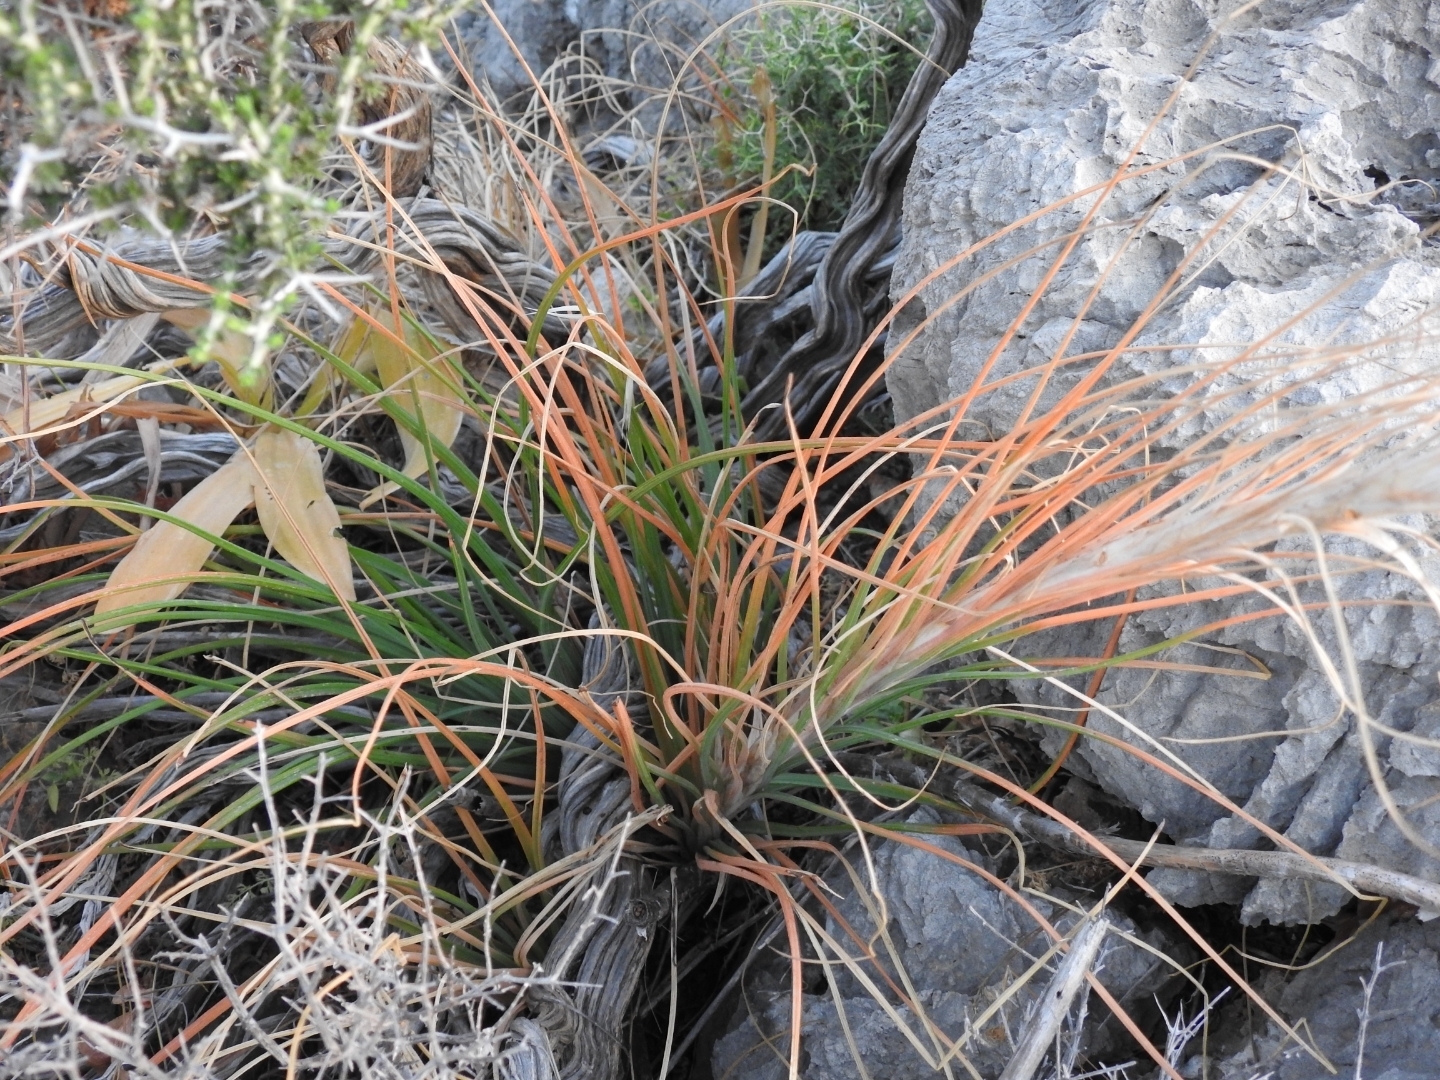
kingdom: Plantae
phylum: Tracheophyta
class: Liliopsida
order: Asparagales
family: Asphodelaceae
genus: Asphodeline
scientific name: Asphodeline lutea
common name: Yellow asphodel
